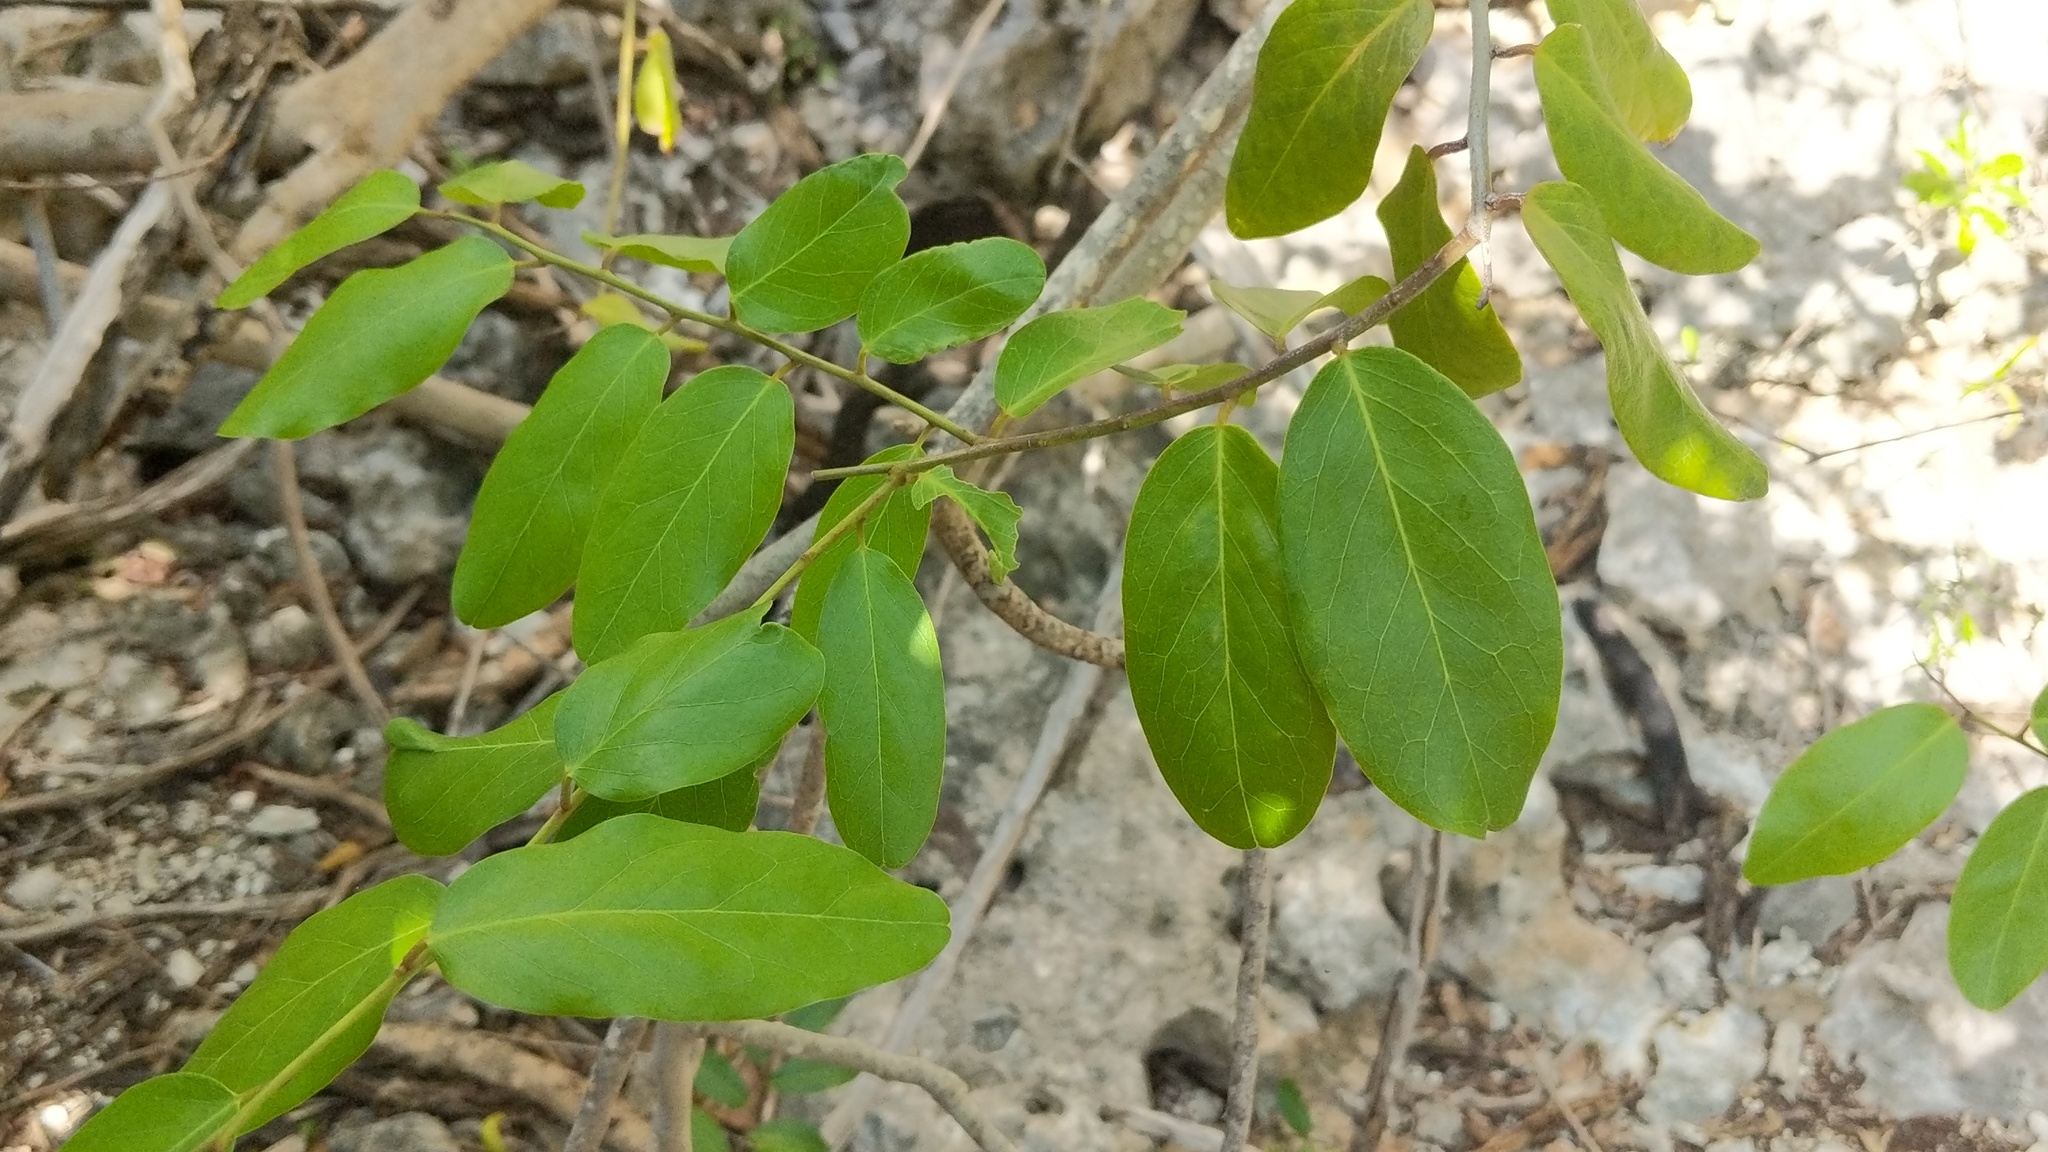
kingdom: Plantae
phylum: Tracheophyta
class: Magnoliopsida
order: Brassicales
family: Capparaceae
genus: Cynophalla
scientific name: Cynophalla flexuosa
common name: Capertree
